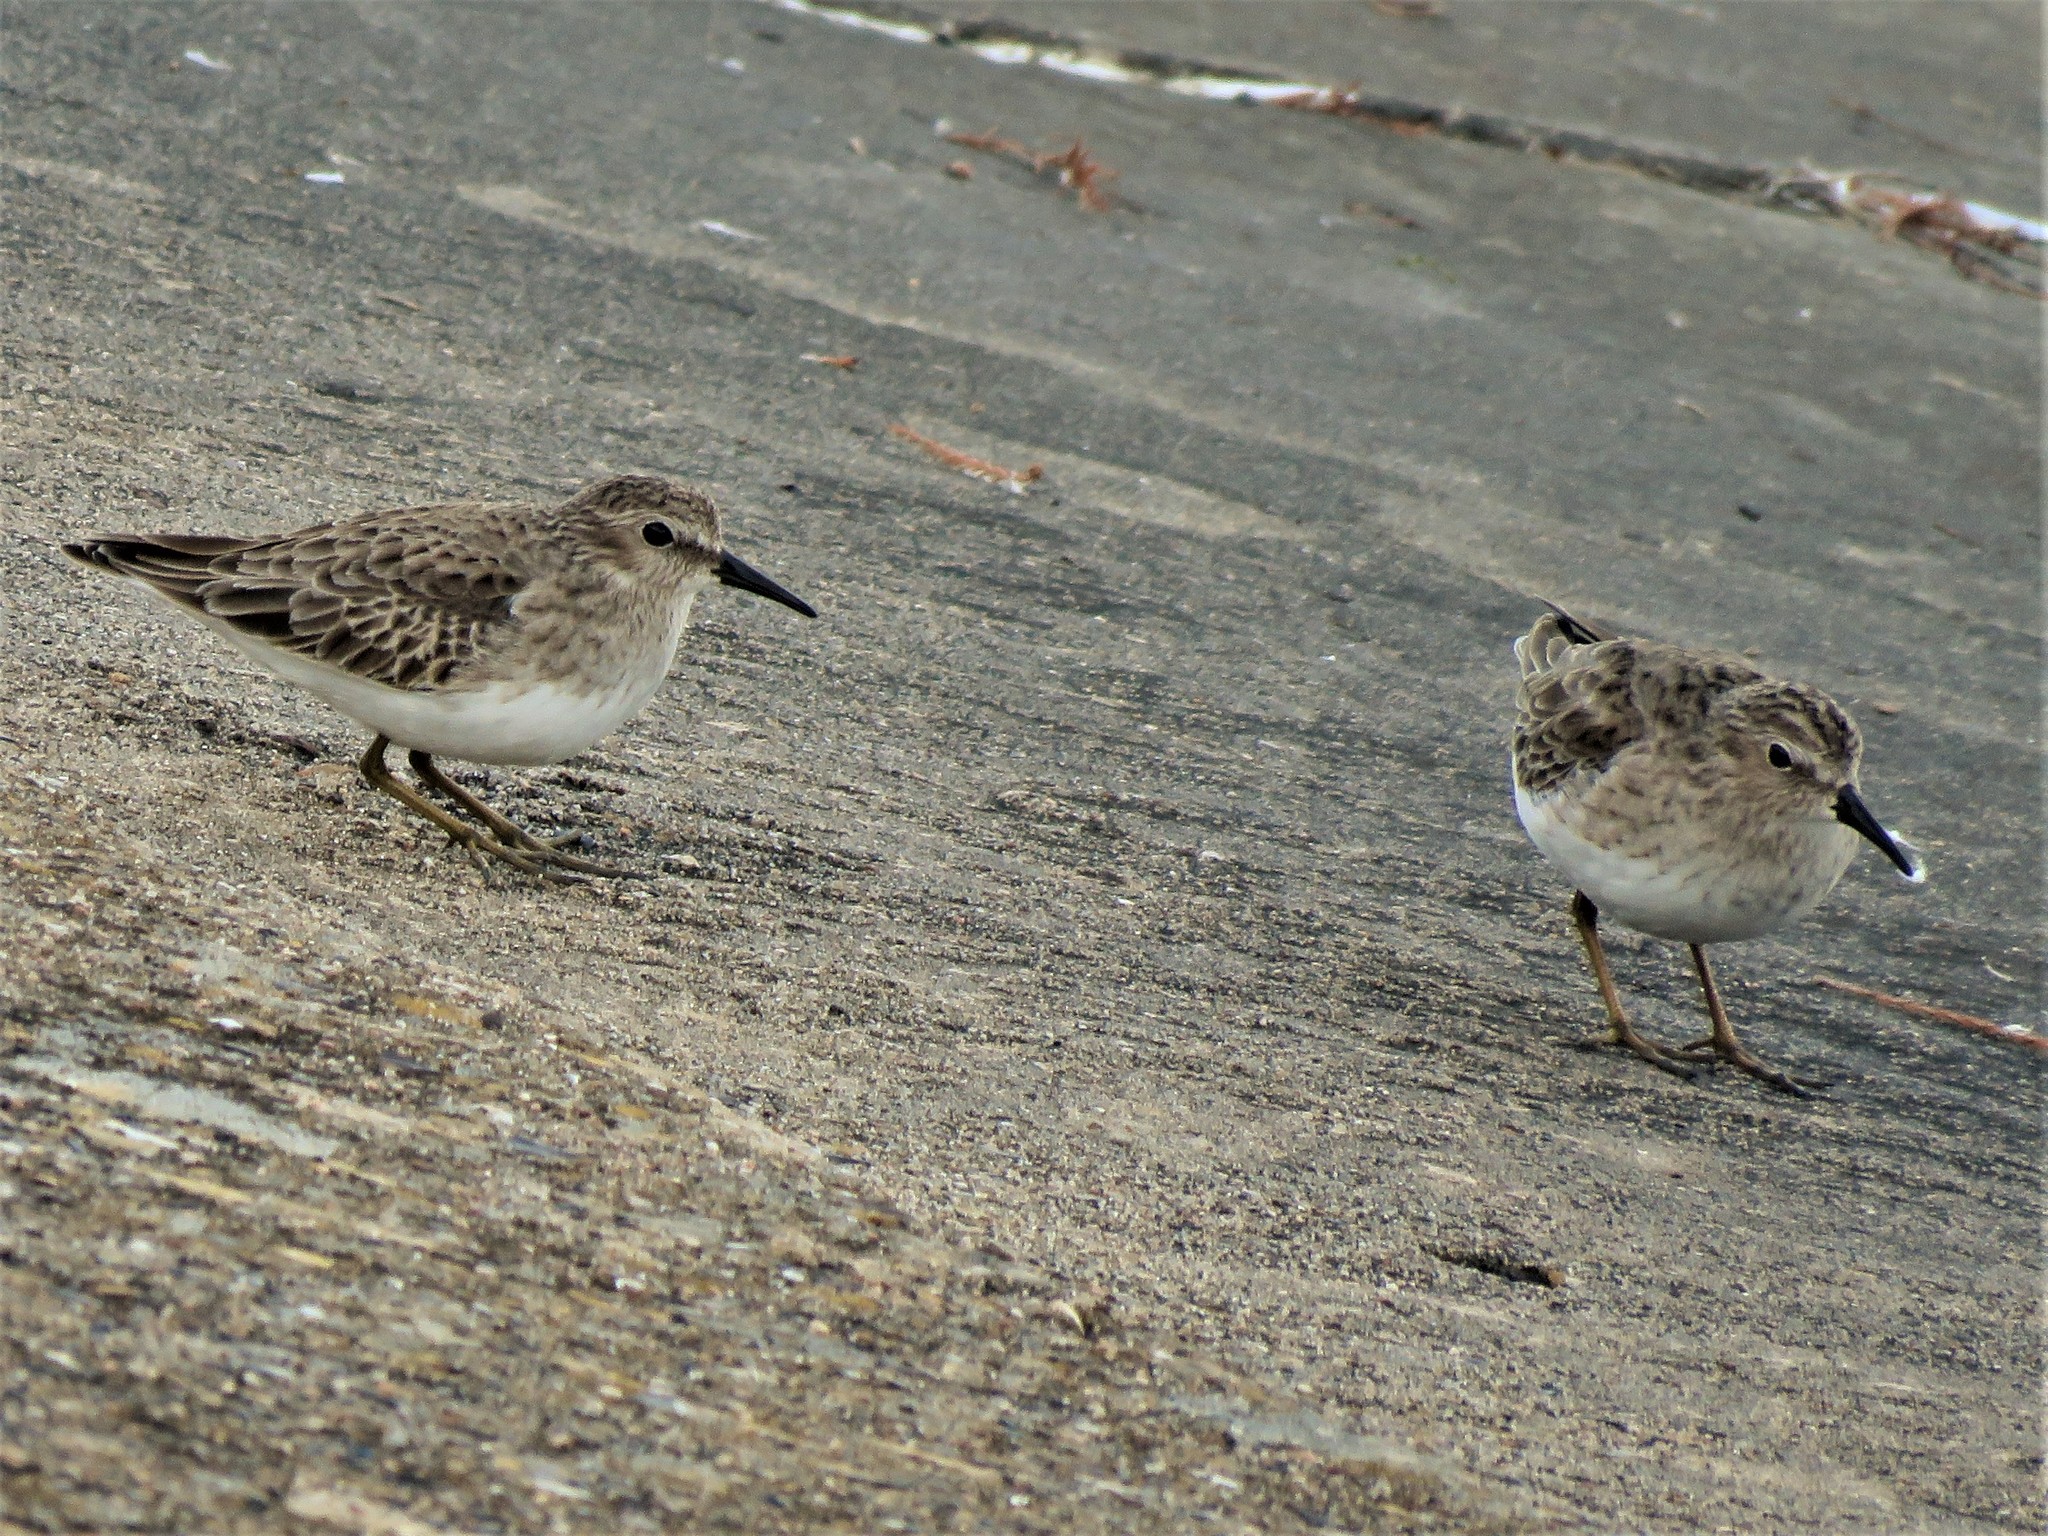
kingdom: Animalia
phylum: Chordata
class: Aves
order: Charadriiformes
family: Scolopacidae
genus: Calidris
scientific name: Calidris minutilla
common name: Least sandpiper
